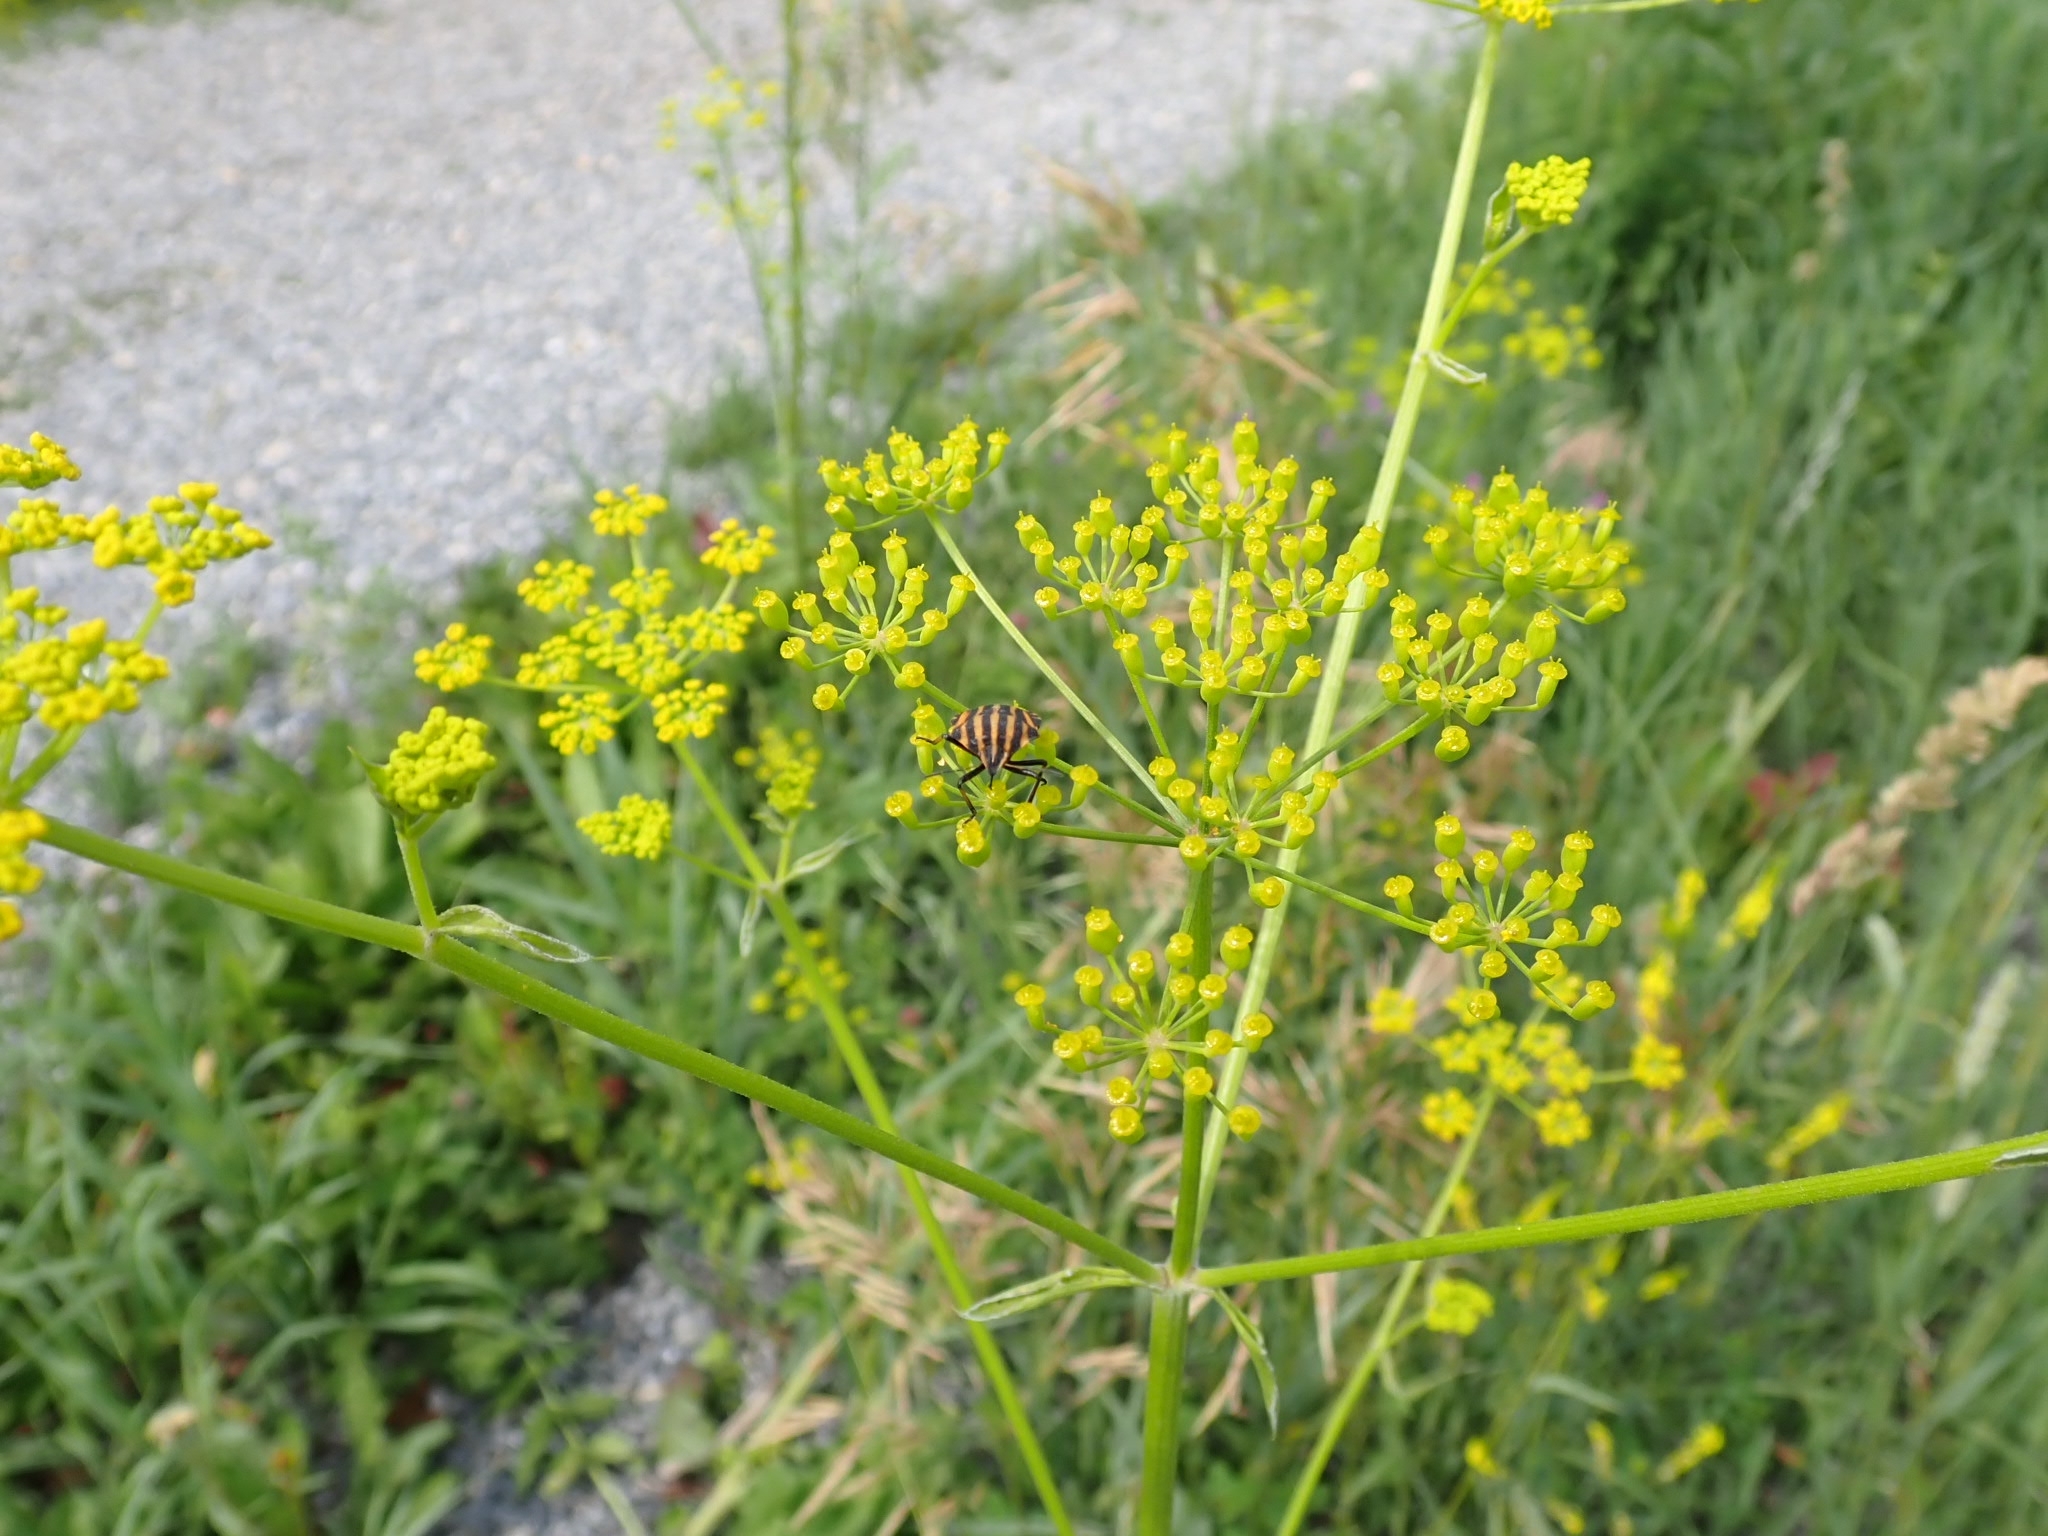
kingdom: Plantae
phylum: Tracheophyta
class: Magnoliopsida
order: Apiales
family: Apiaceae
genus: Pastinaca
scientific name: Pastinaca sativa
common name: Wild parsnip
